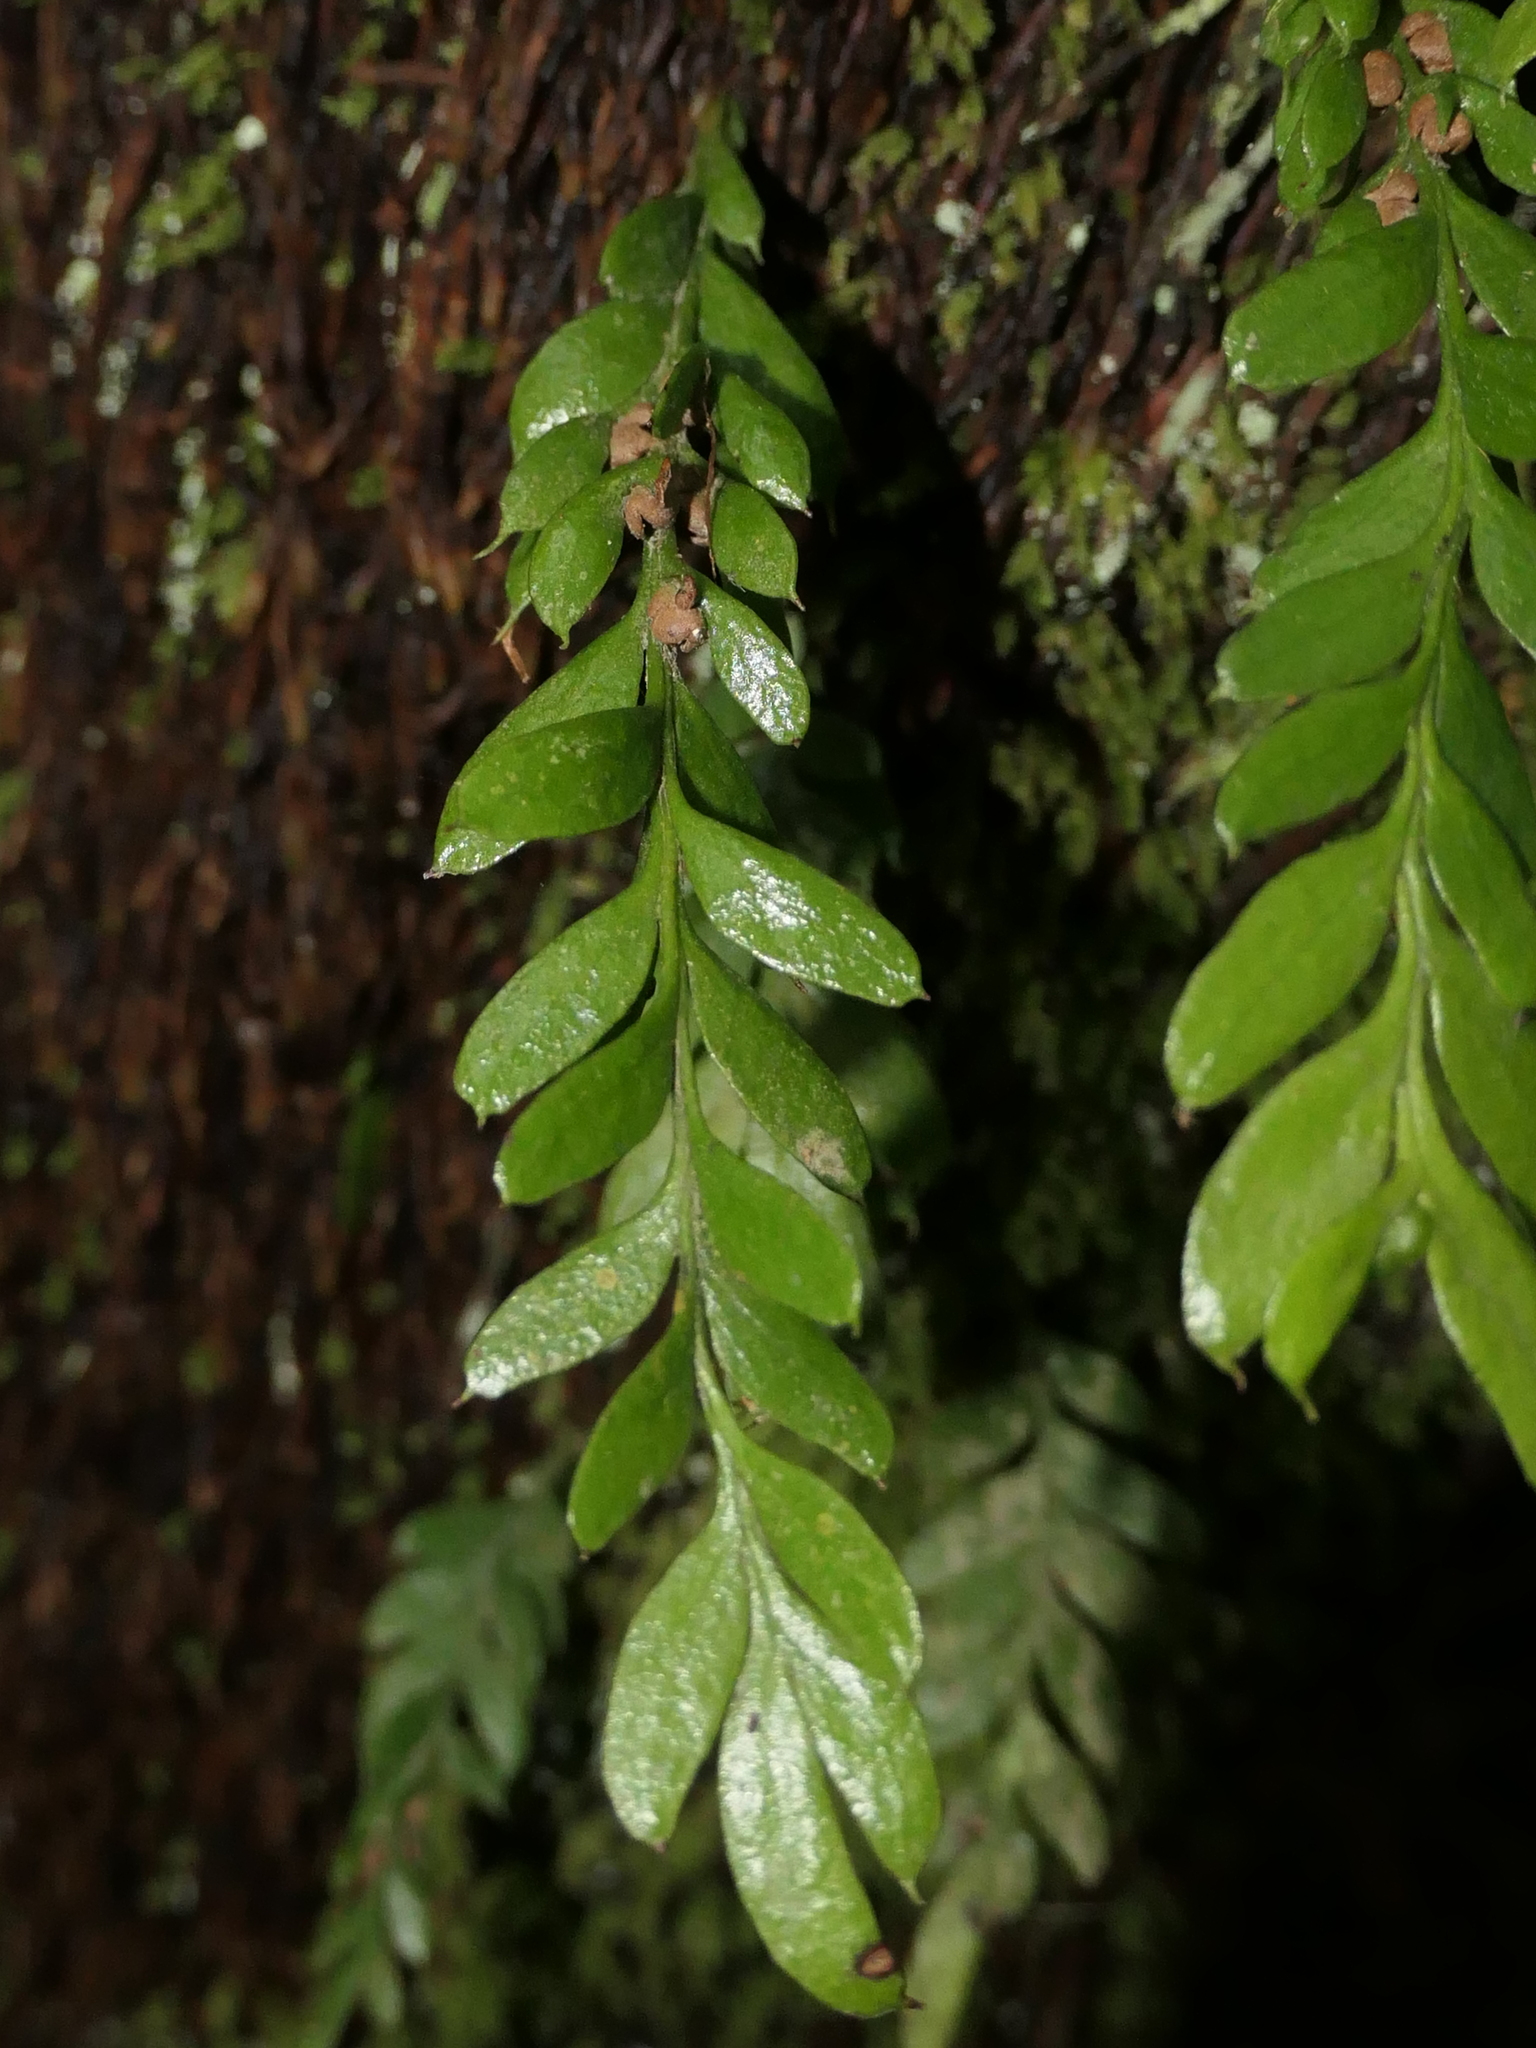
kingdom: Plantae
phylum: Tracheophyta
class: Polypodiopsida
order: Psilotales
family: Psilotaceae
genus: Tmesipteris
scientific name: Tmesipteris lanceolata
